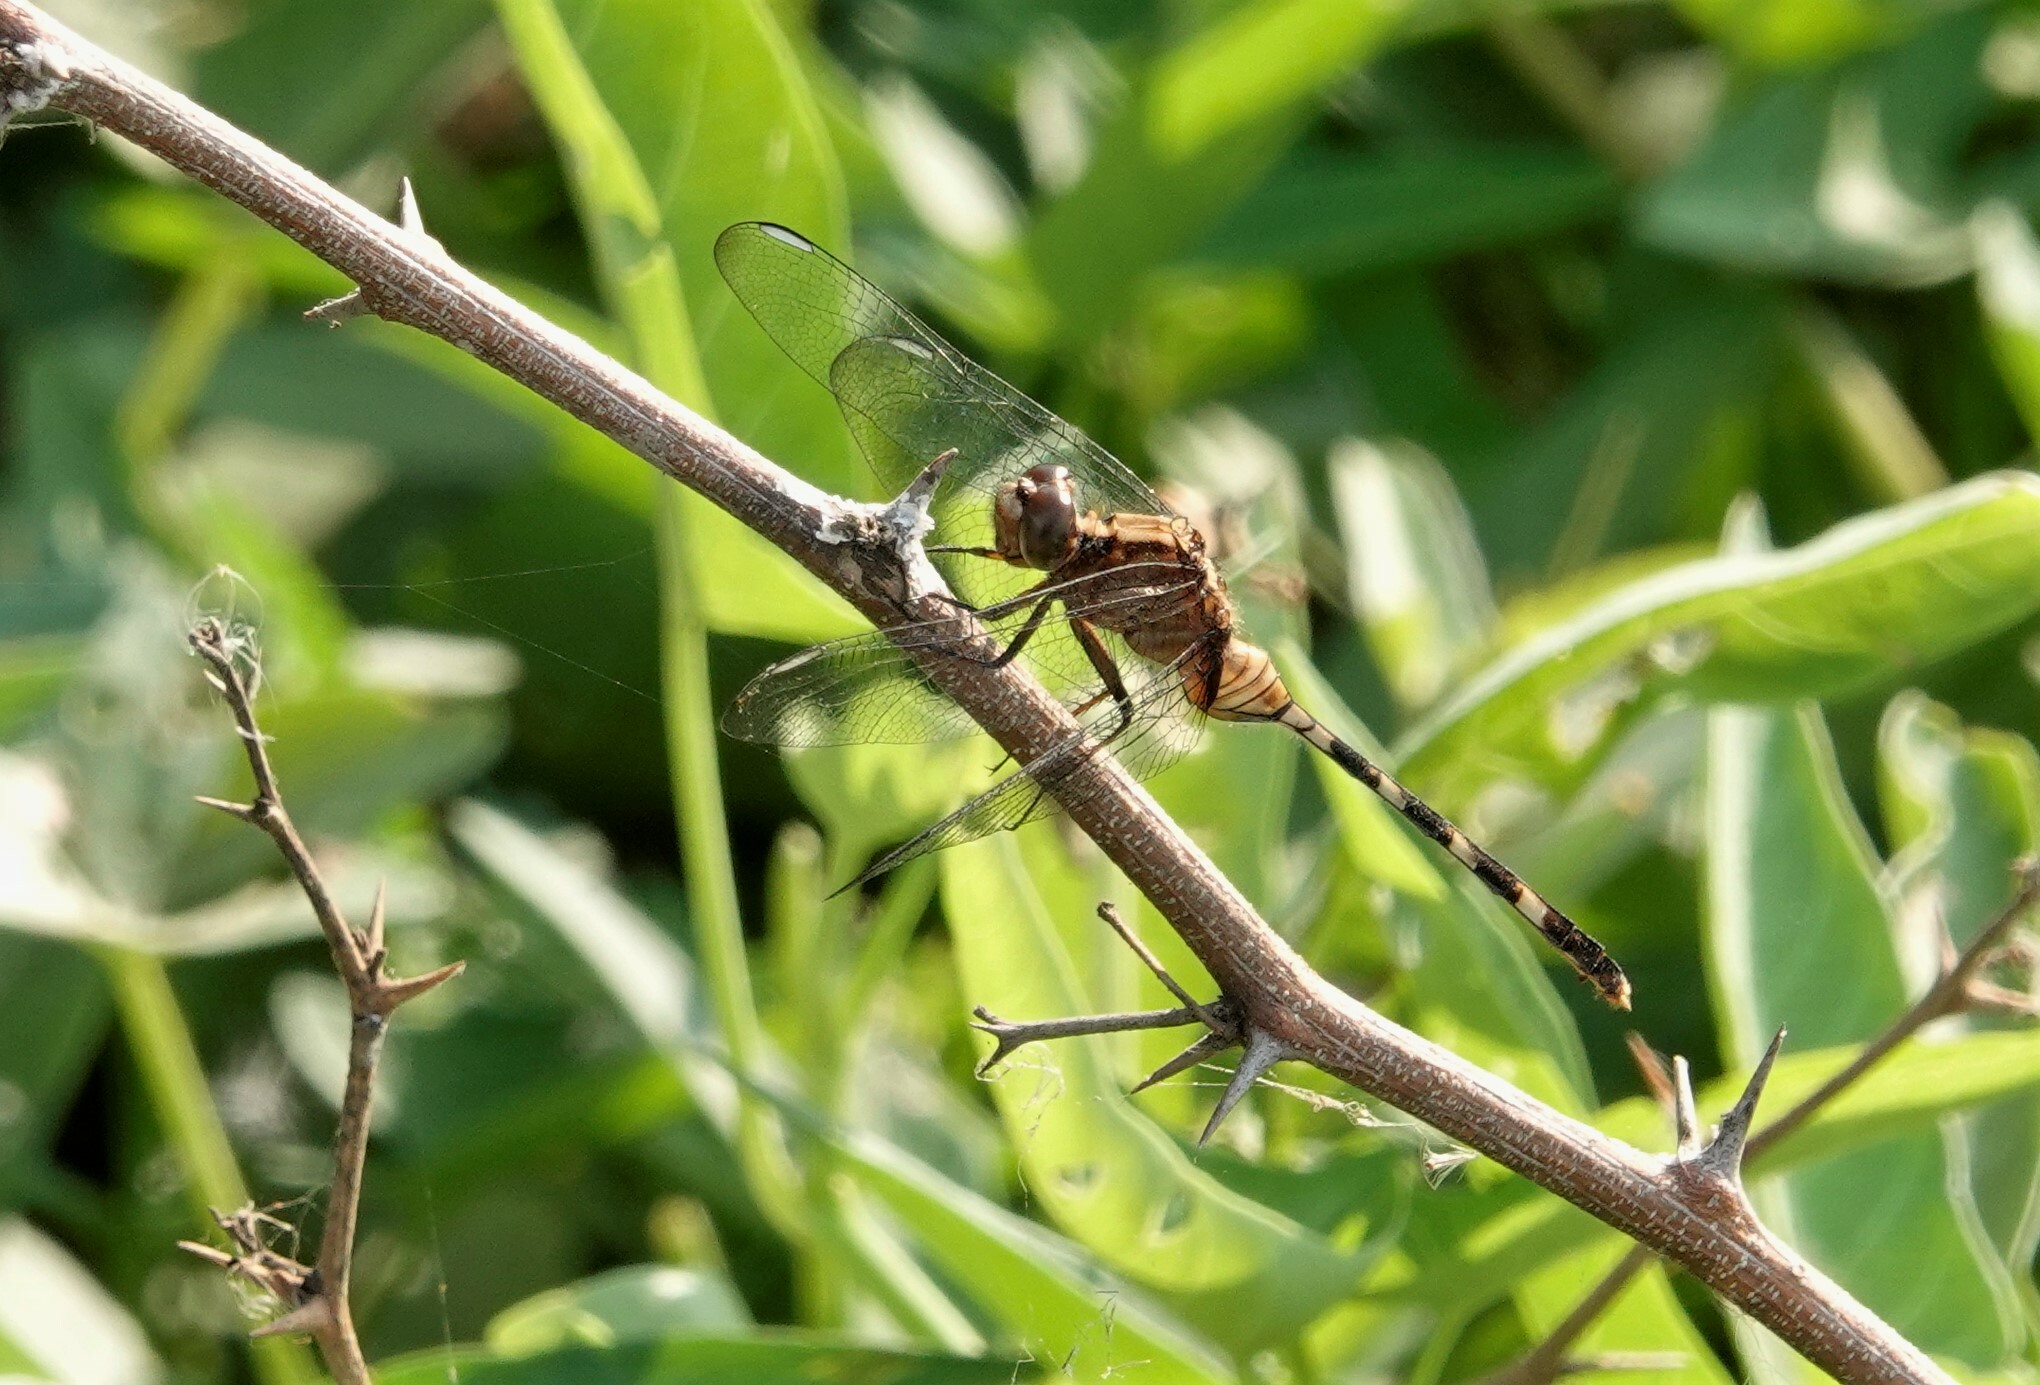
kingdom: Animalia
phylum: Arthropoda
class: Insecta
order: Odonata
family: Libellulidae
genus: Erythemis
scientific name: Erythemis plebeja
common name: Pin-tailed pondhawk
